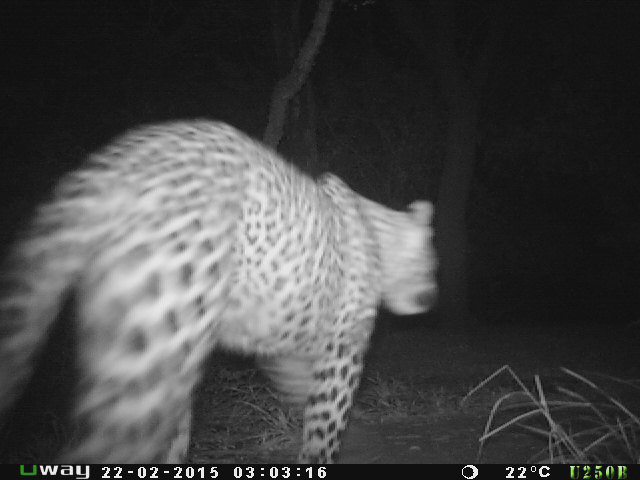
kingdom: Animalia
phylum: Chordata
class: Mammalia
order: Carnivora
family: Felidae
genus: Panthera
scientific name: Panthera pardus
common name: Leopard
